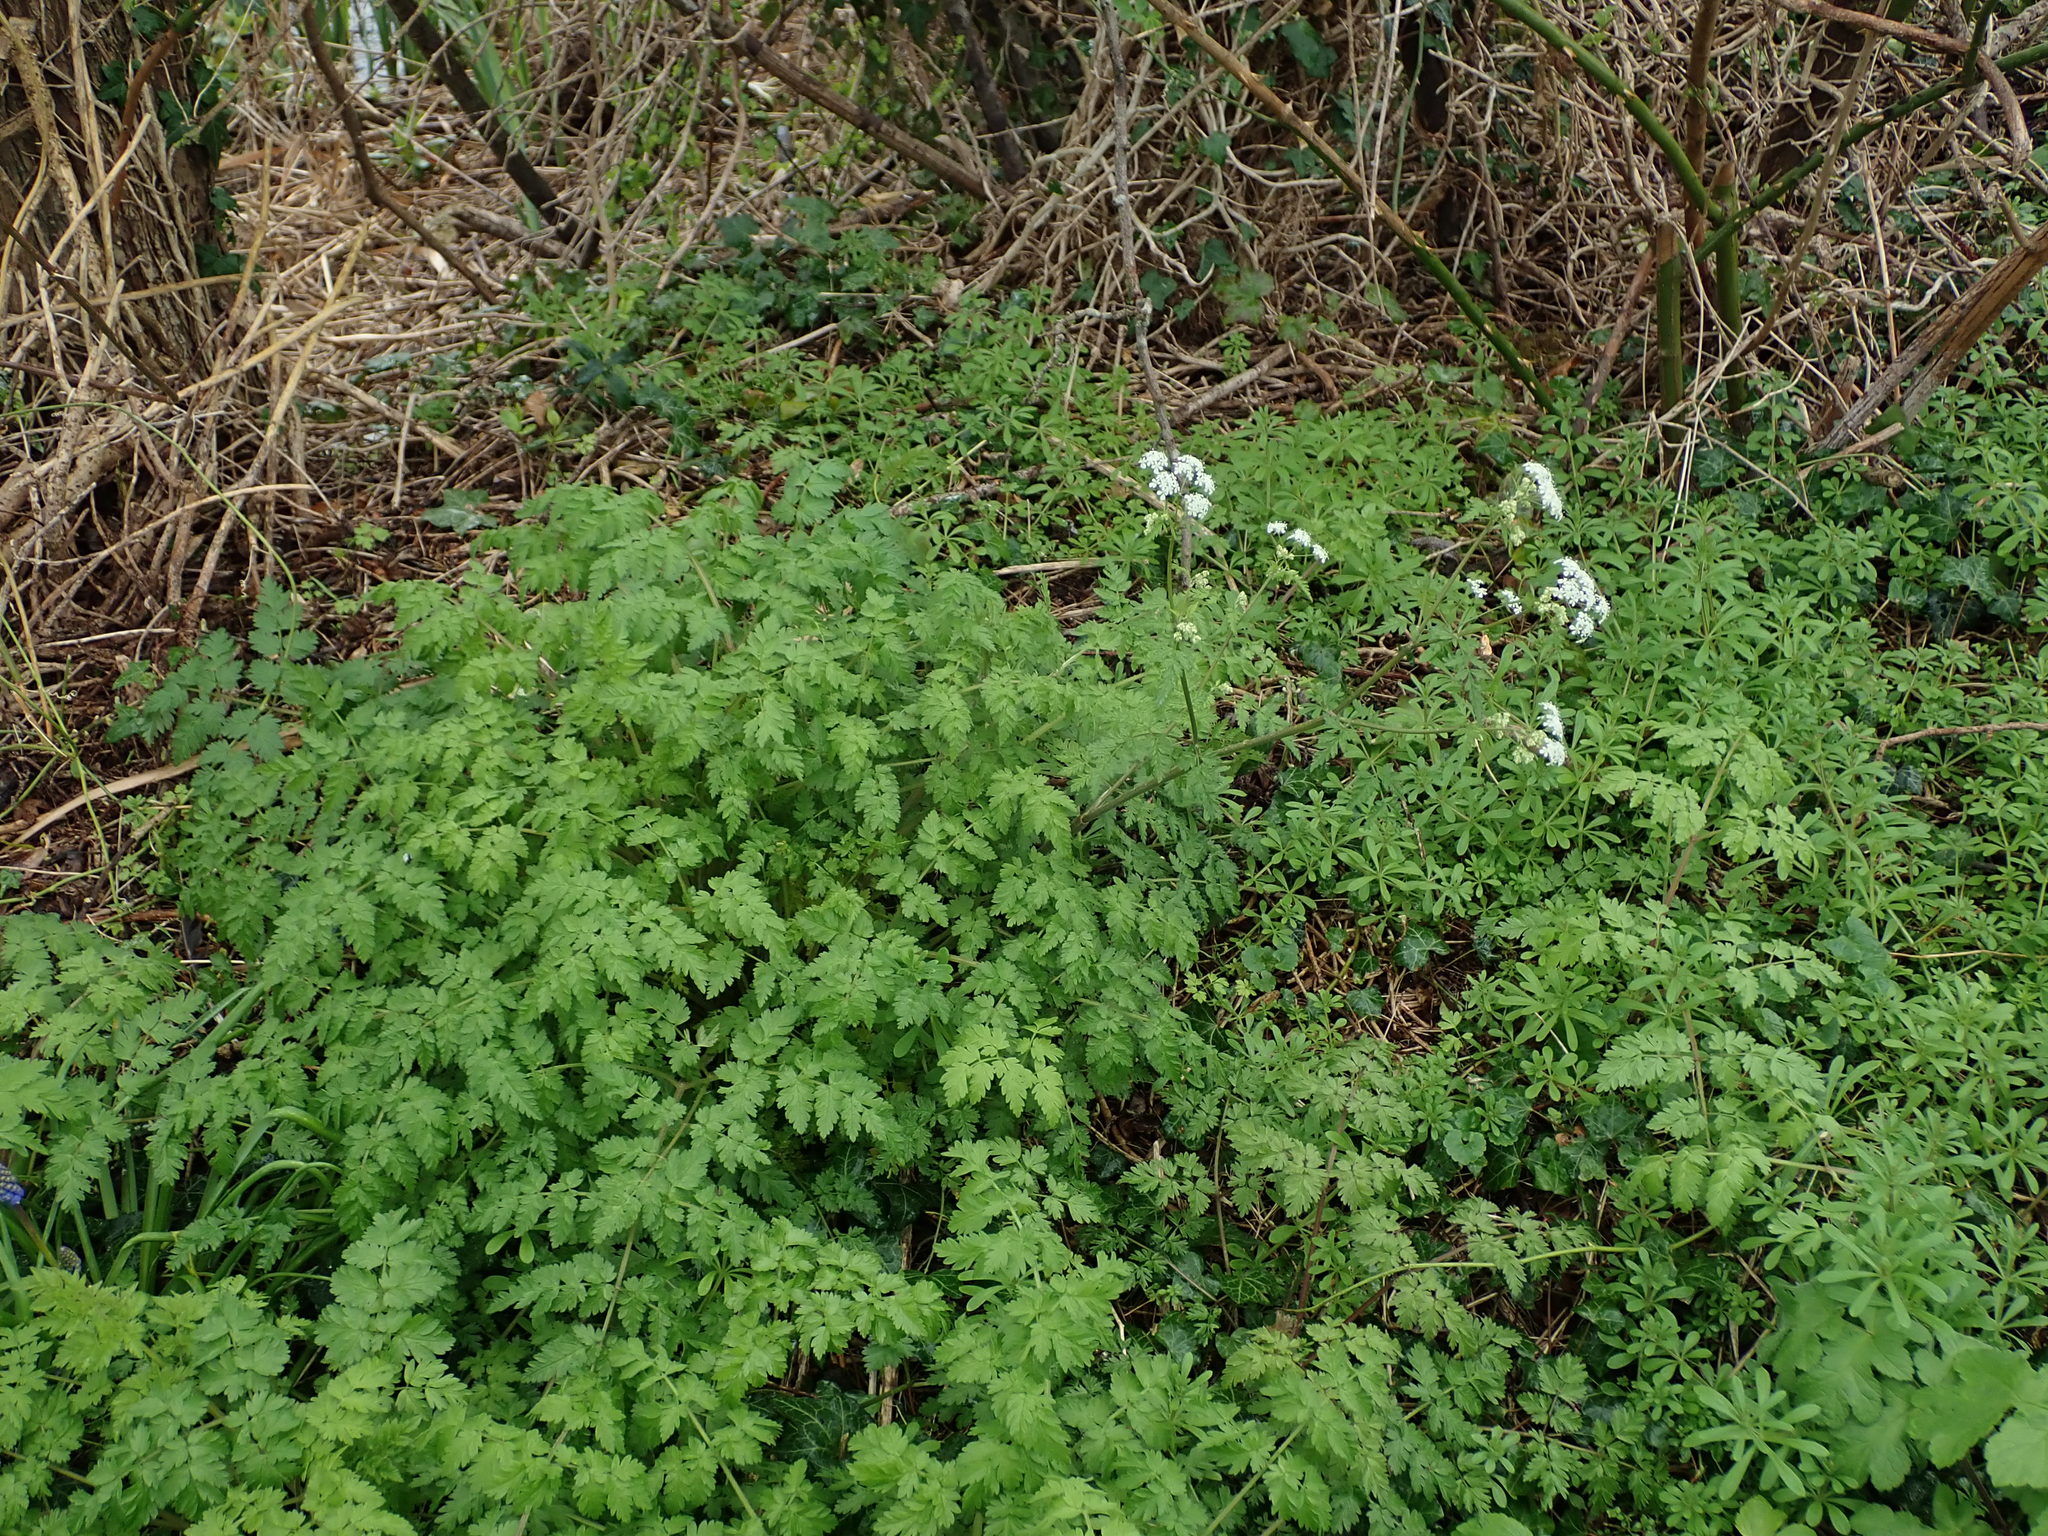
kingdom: Plantae
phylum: Tracheophyta
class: Magnoliopsida
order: Apiales
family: Apiaceae
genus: Anthriscus
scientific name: Anthriscus sylvestris
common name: Cow parsley
